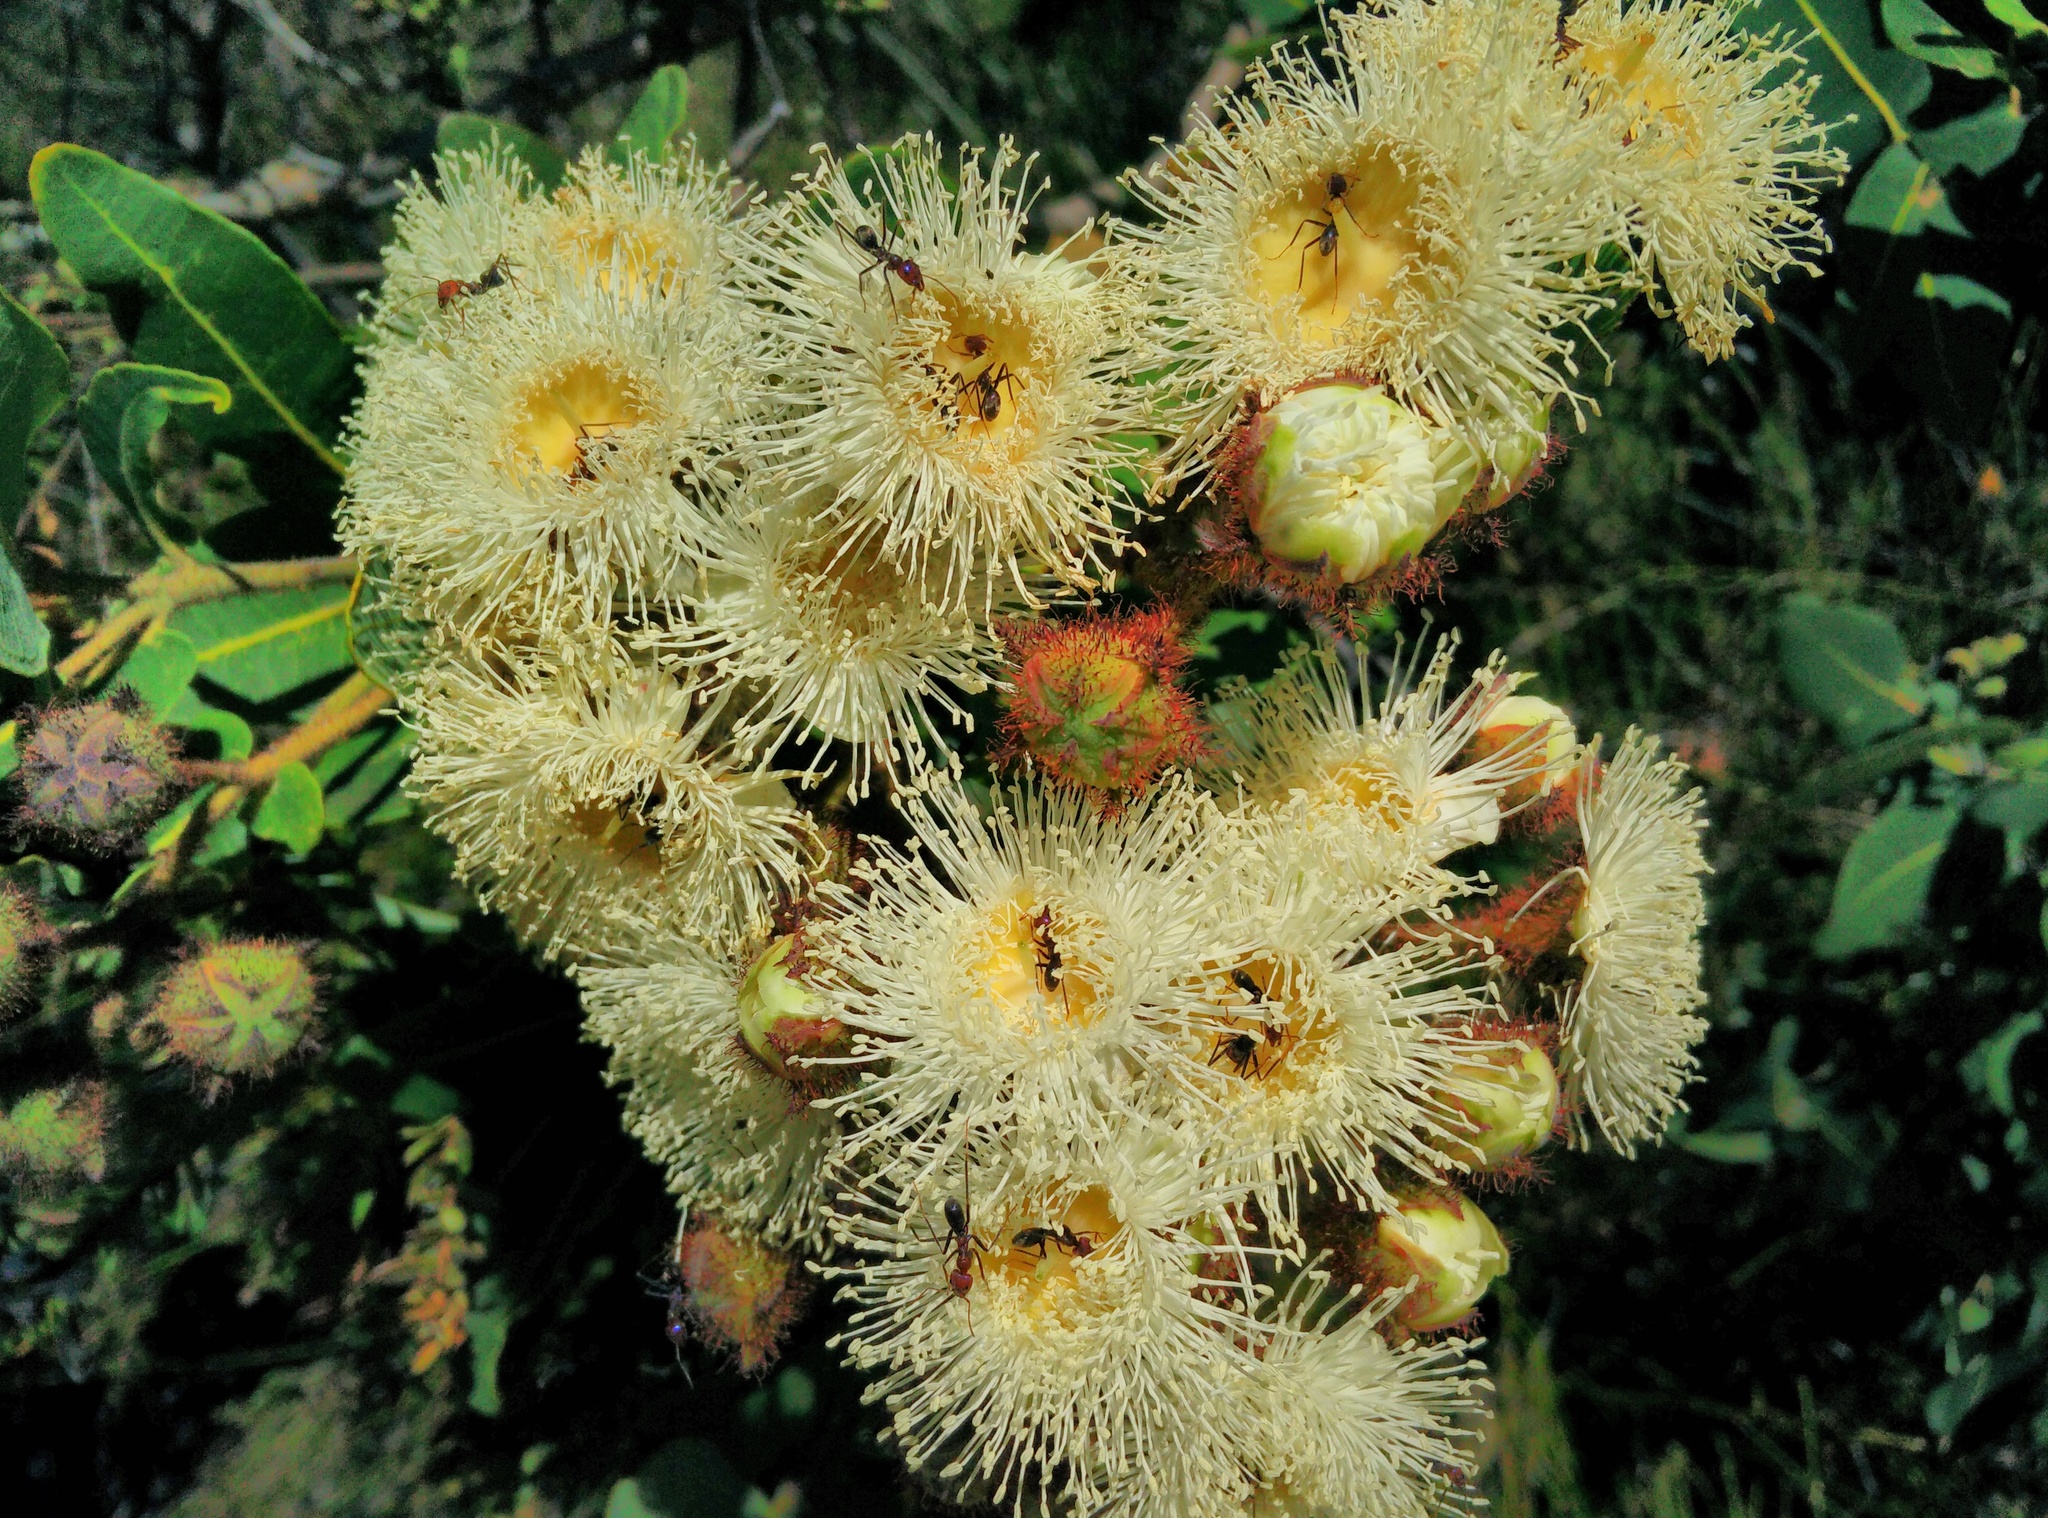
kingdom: Animalia
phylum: Arthropoda
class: Insecta
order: Hymenoptera
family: Formicidae
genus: Iridomyrmex
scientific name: Iridomyrmex purpureus
